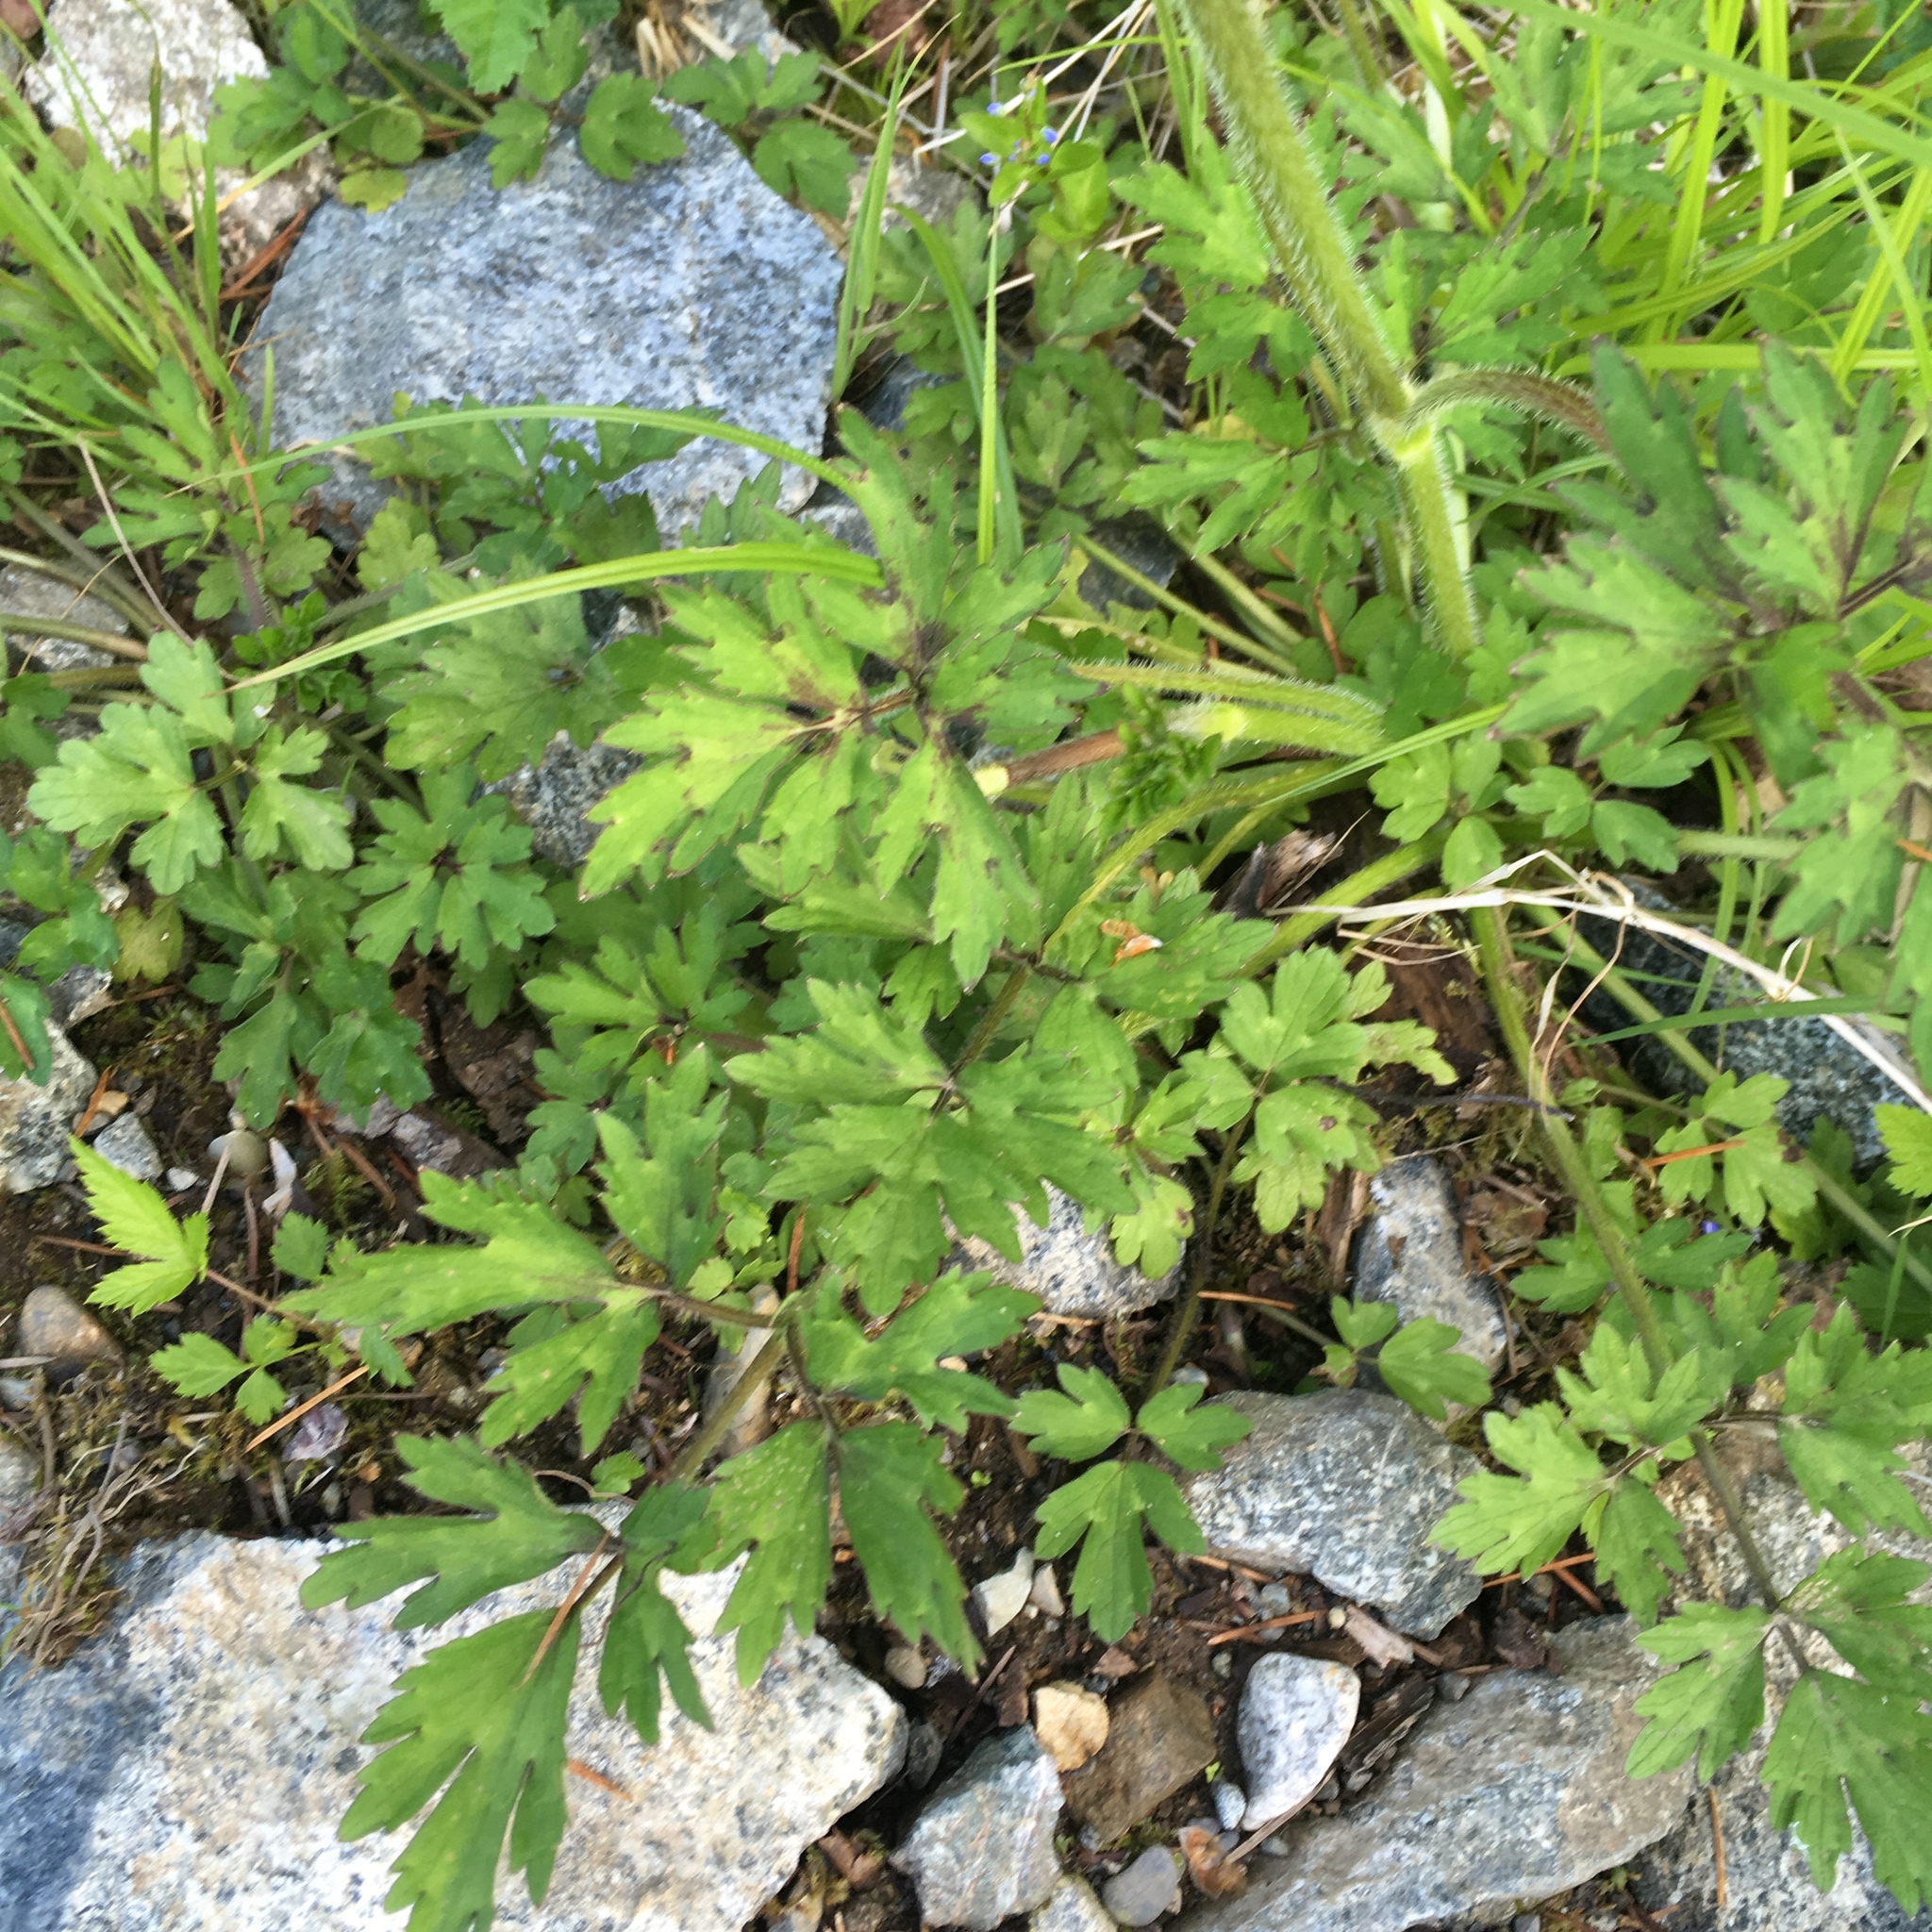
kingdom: Plantae
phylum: Tracheophyta
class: Magnoliopsida
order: Ranunculales
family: Ranunculaceae
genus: Ranunculus
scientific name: Ranunculus repens
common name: Creeping buttercup
